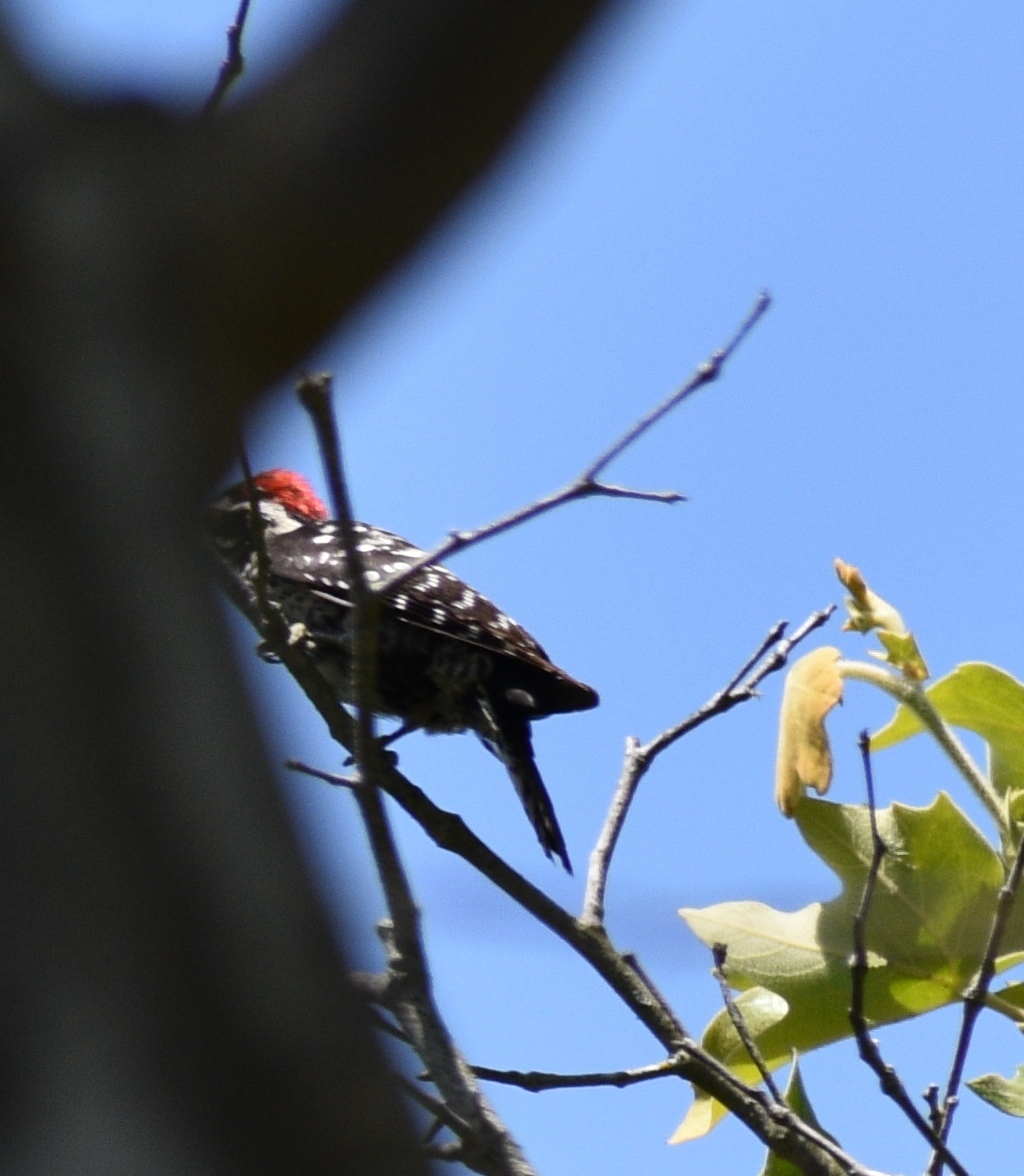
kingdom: Animalia
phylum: Chordata
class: Aves
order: Piciformes
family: Picidae
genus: Dryobates
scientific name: Dryobates nuttallii
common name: Nuttall's woodpecker
